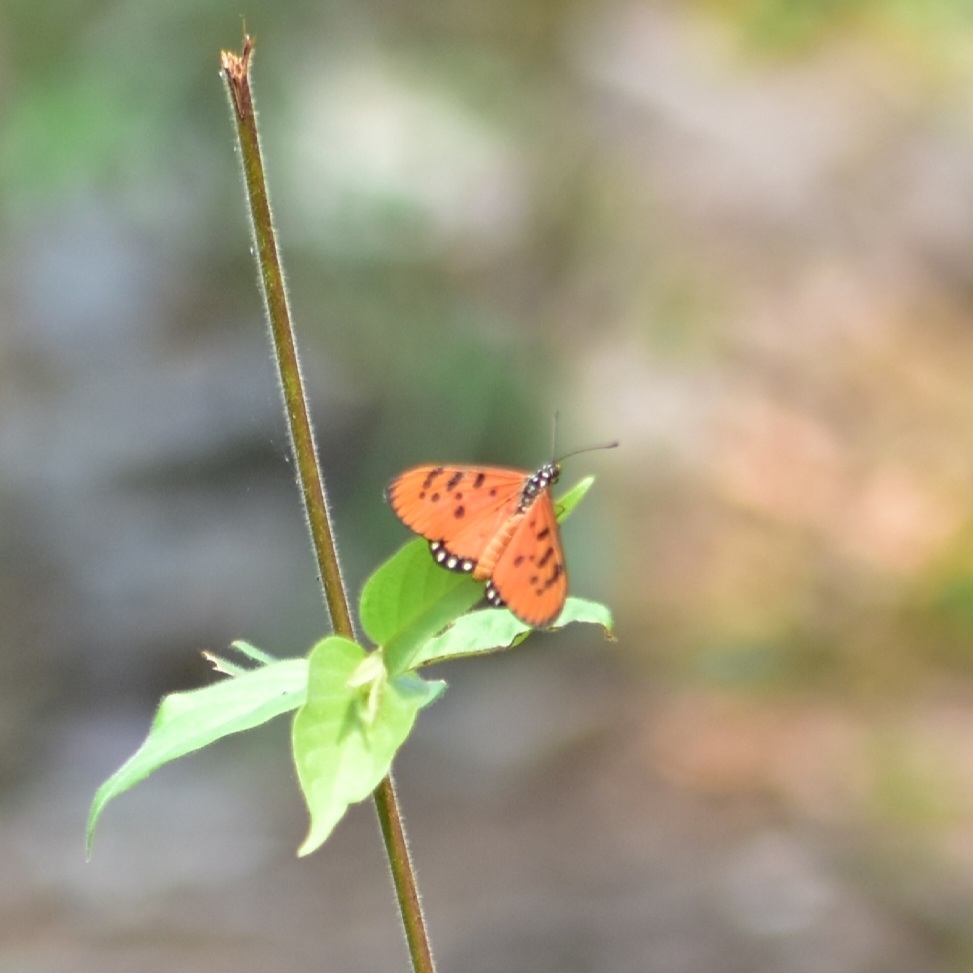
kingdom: Animalia
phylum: Arthropoda
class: Insecta
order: Lepidoptera
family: Nymphalidae
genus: Acraea
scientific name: Acraea terpsicore
